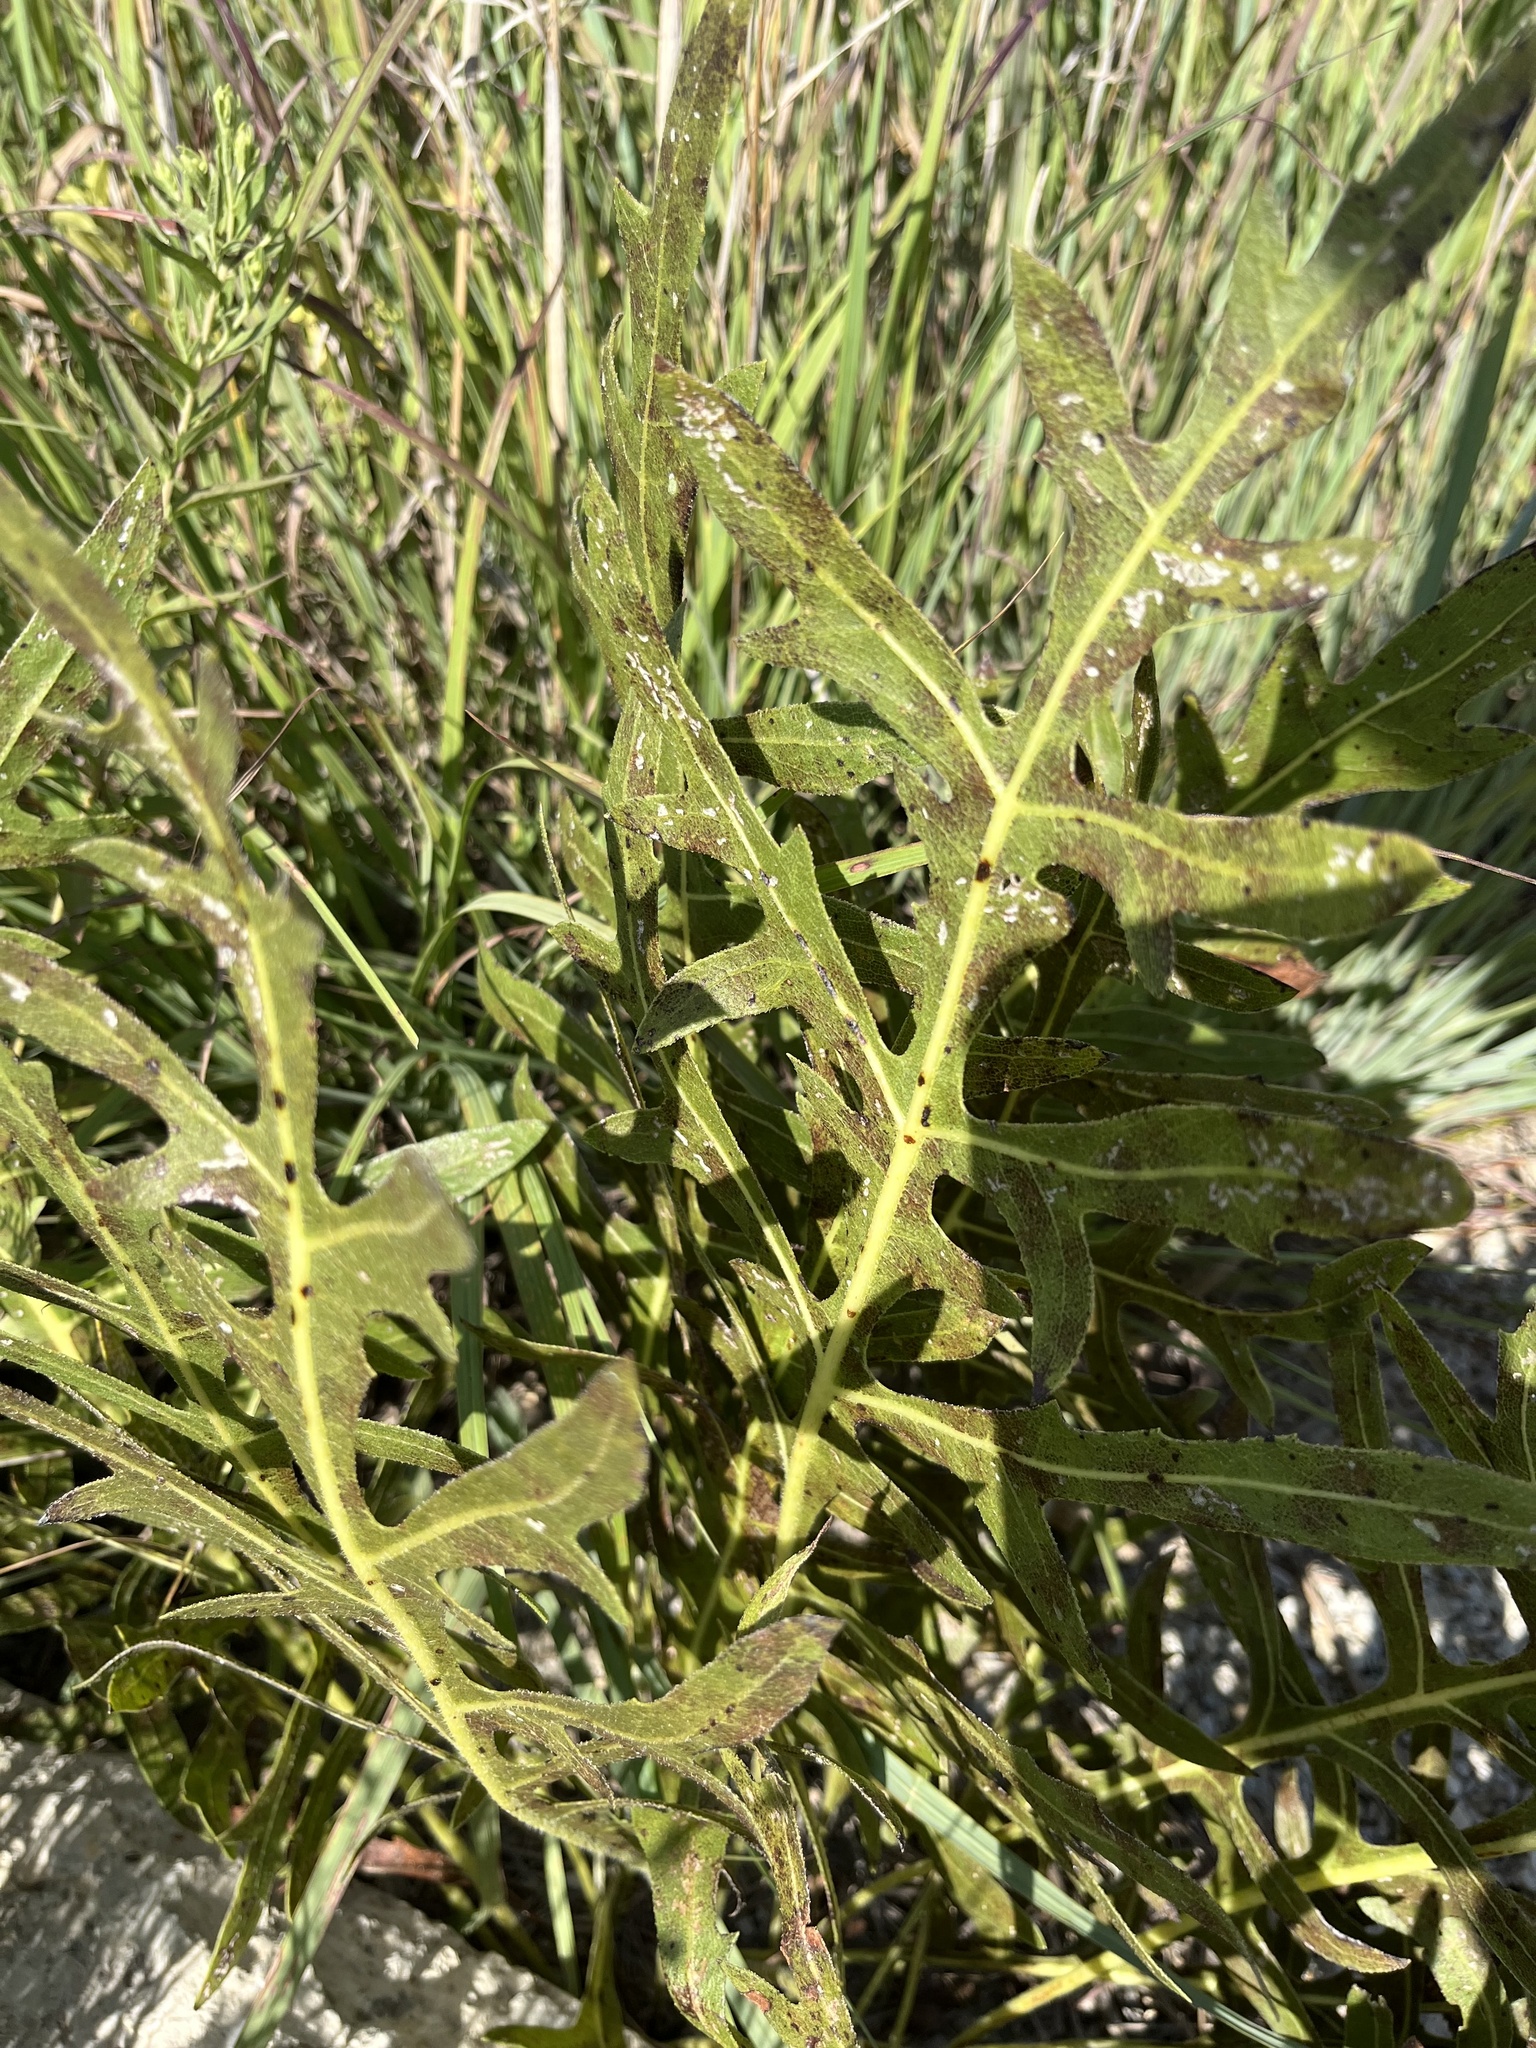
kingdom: Plantae
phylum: Tracheophyta
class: Magnoliopsida
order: Asterales
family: Asteraceae
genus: Silphium
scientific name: Silphium laciniatum
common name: Polarplant
